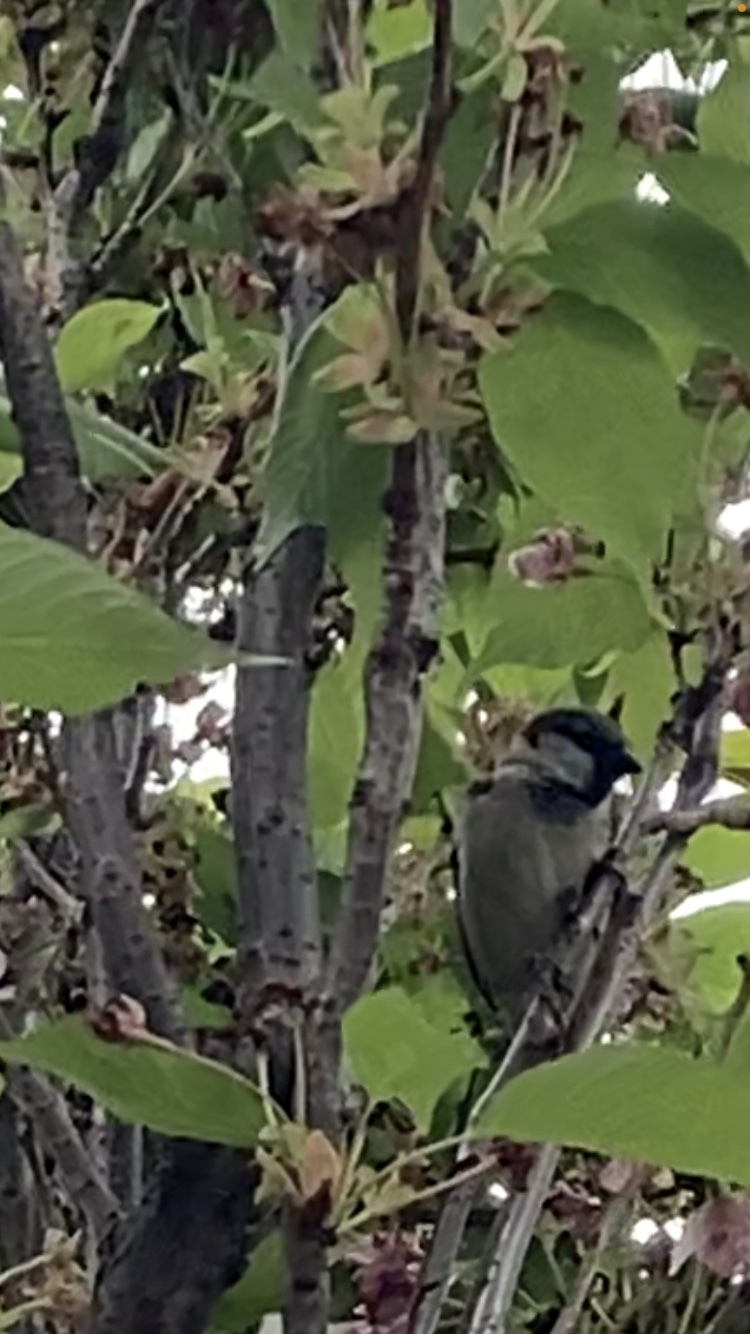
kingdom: Animalia
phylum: Chordata
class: Aves
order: Passeriformes
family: Passeridae
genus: Passer
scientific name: Passer domesticus
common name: House sparrow
